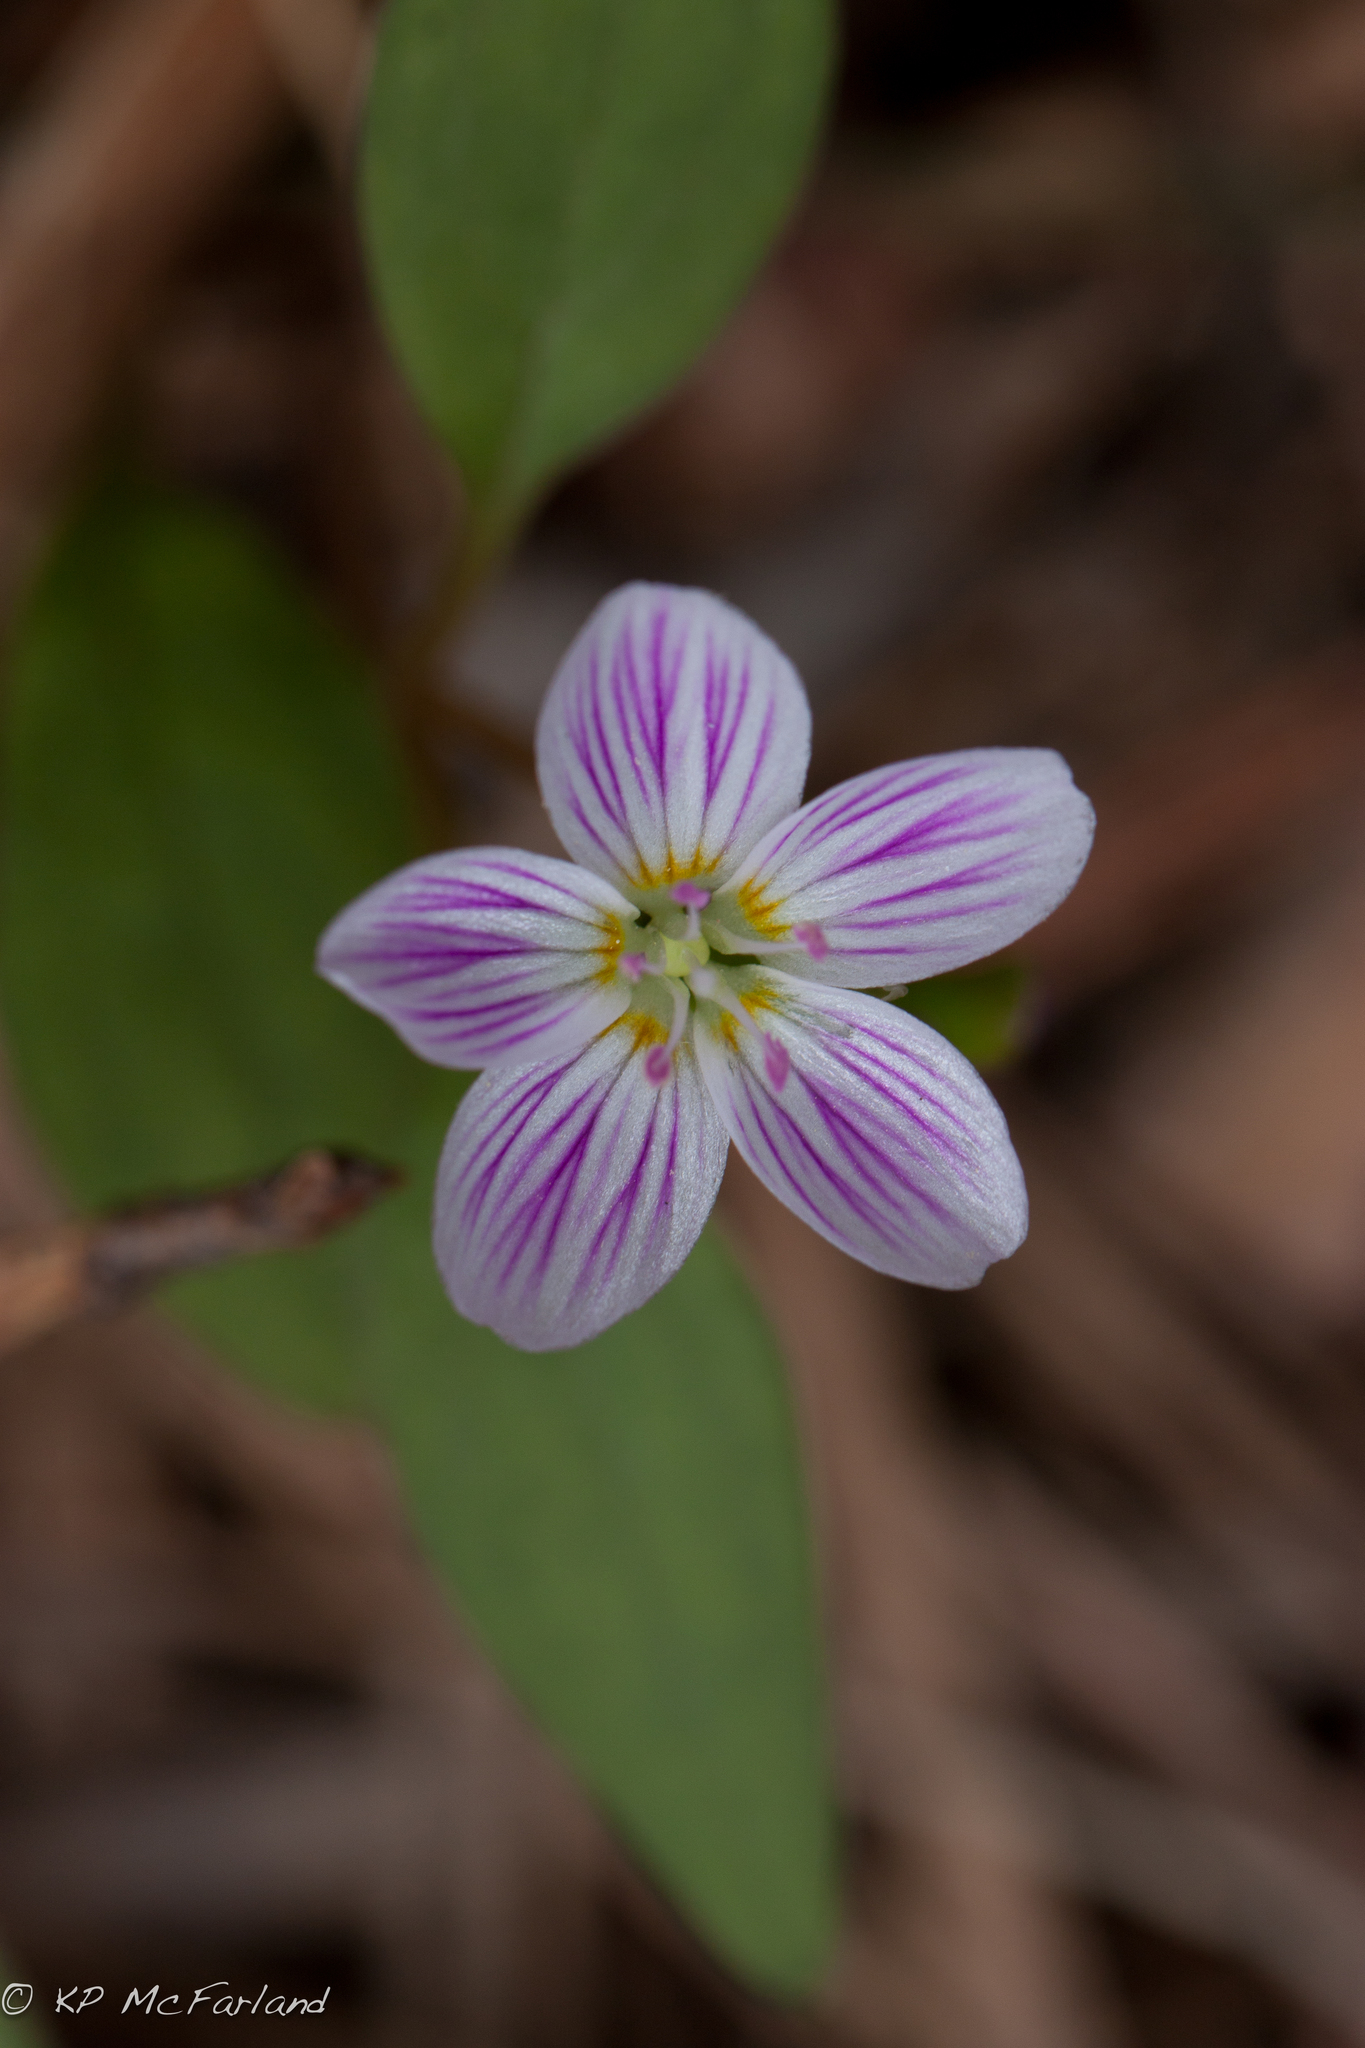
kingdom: Plantae
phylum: Tracheophyta
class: Magnoliopsida
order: Caryophyllales
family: Montiaceae
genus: Claytonia
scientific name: Claytonia caroliniana
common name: Carolina spring beauty
